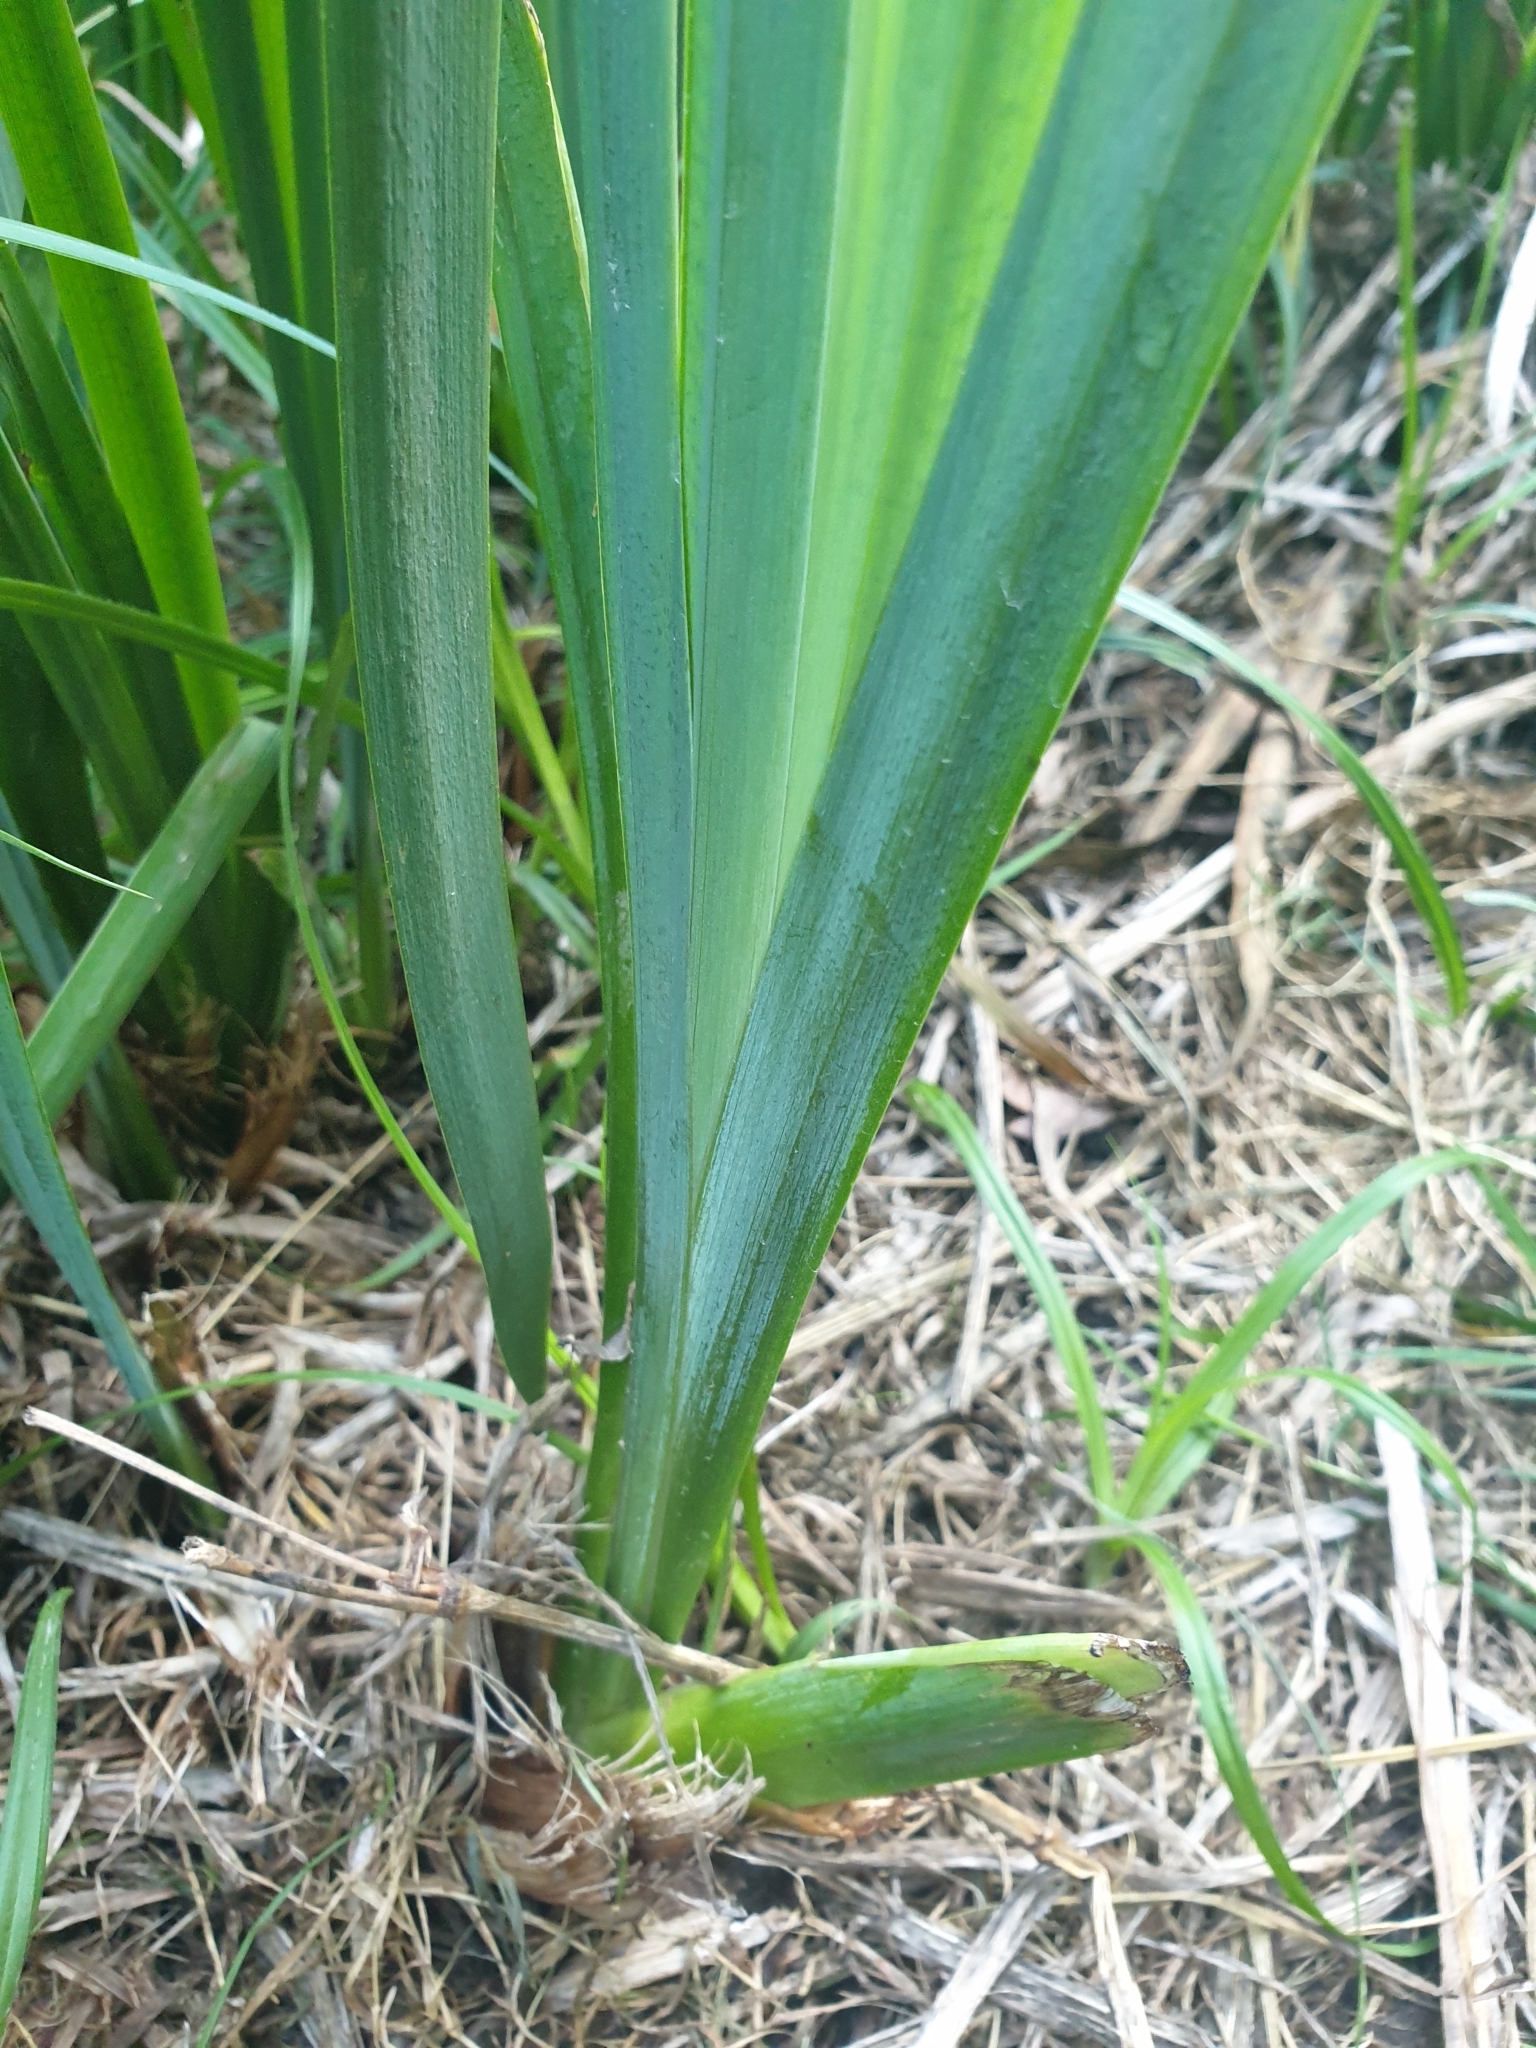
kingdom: Plantae
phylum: Tracheophyta
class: Liliopsida
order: Asparagales
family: Iridaceae
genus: Iris
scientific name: Iris pseudacorus
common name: Yellow flag
